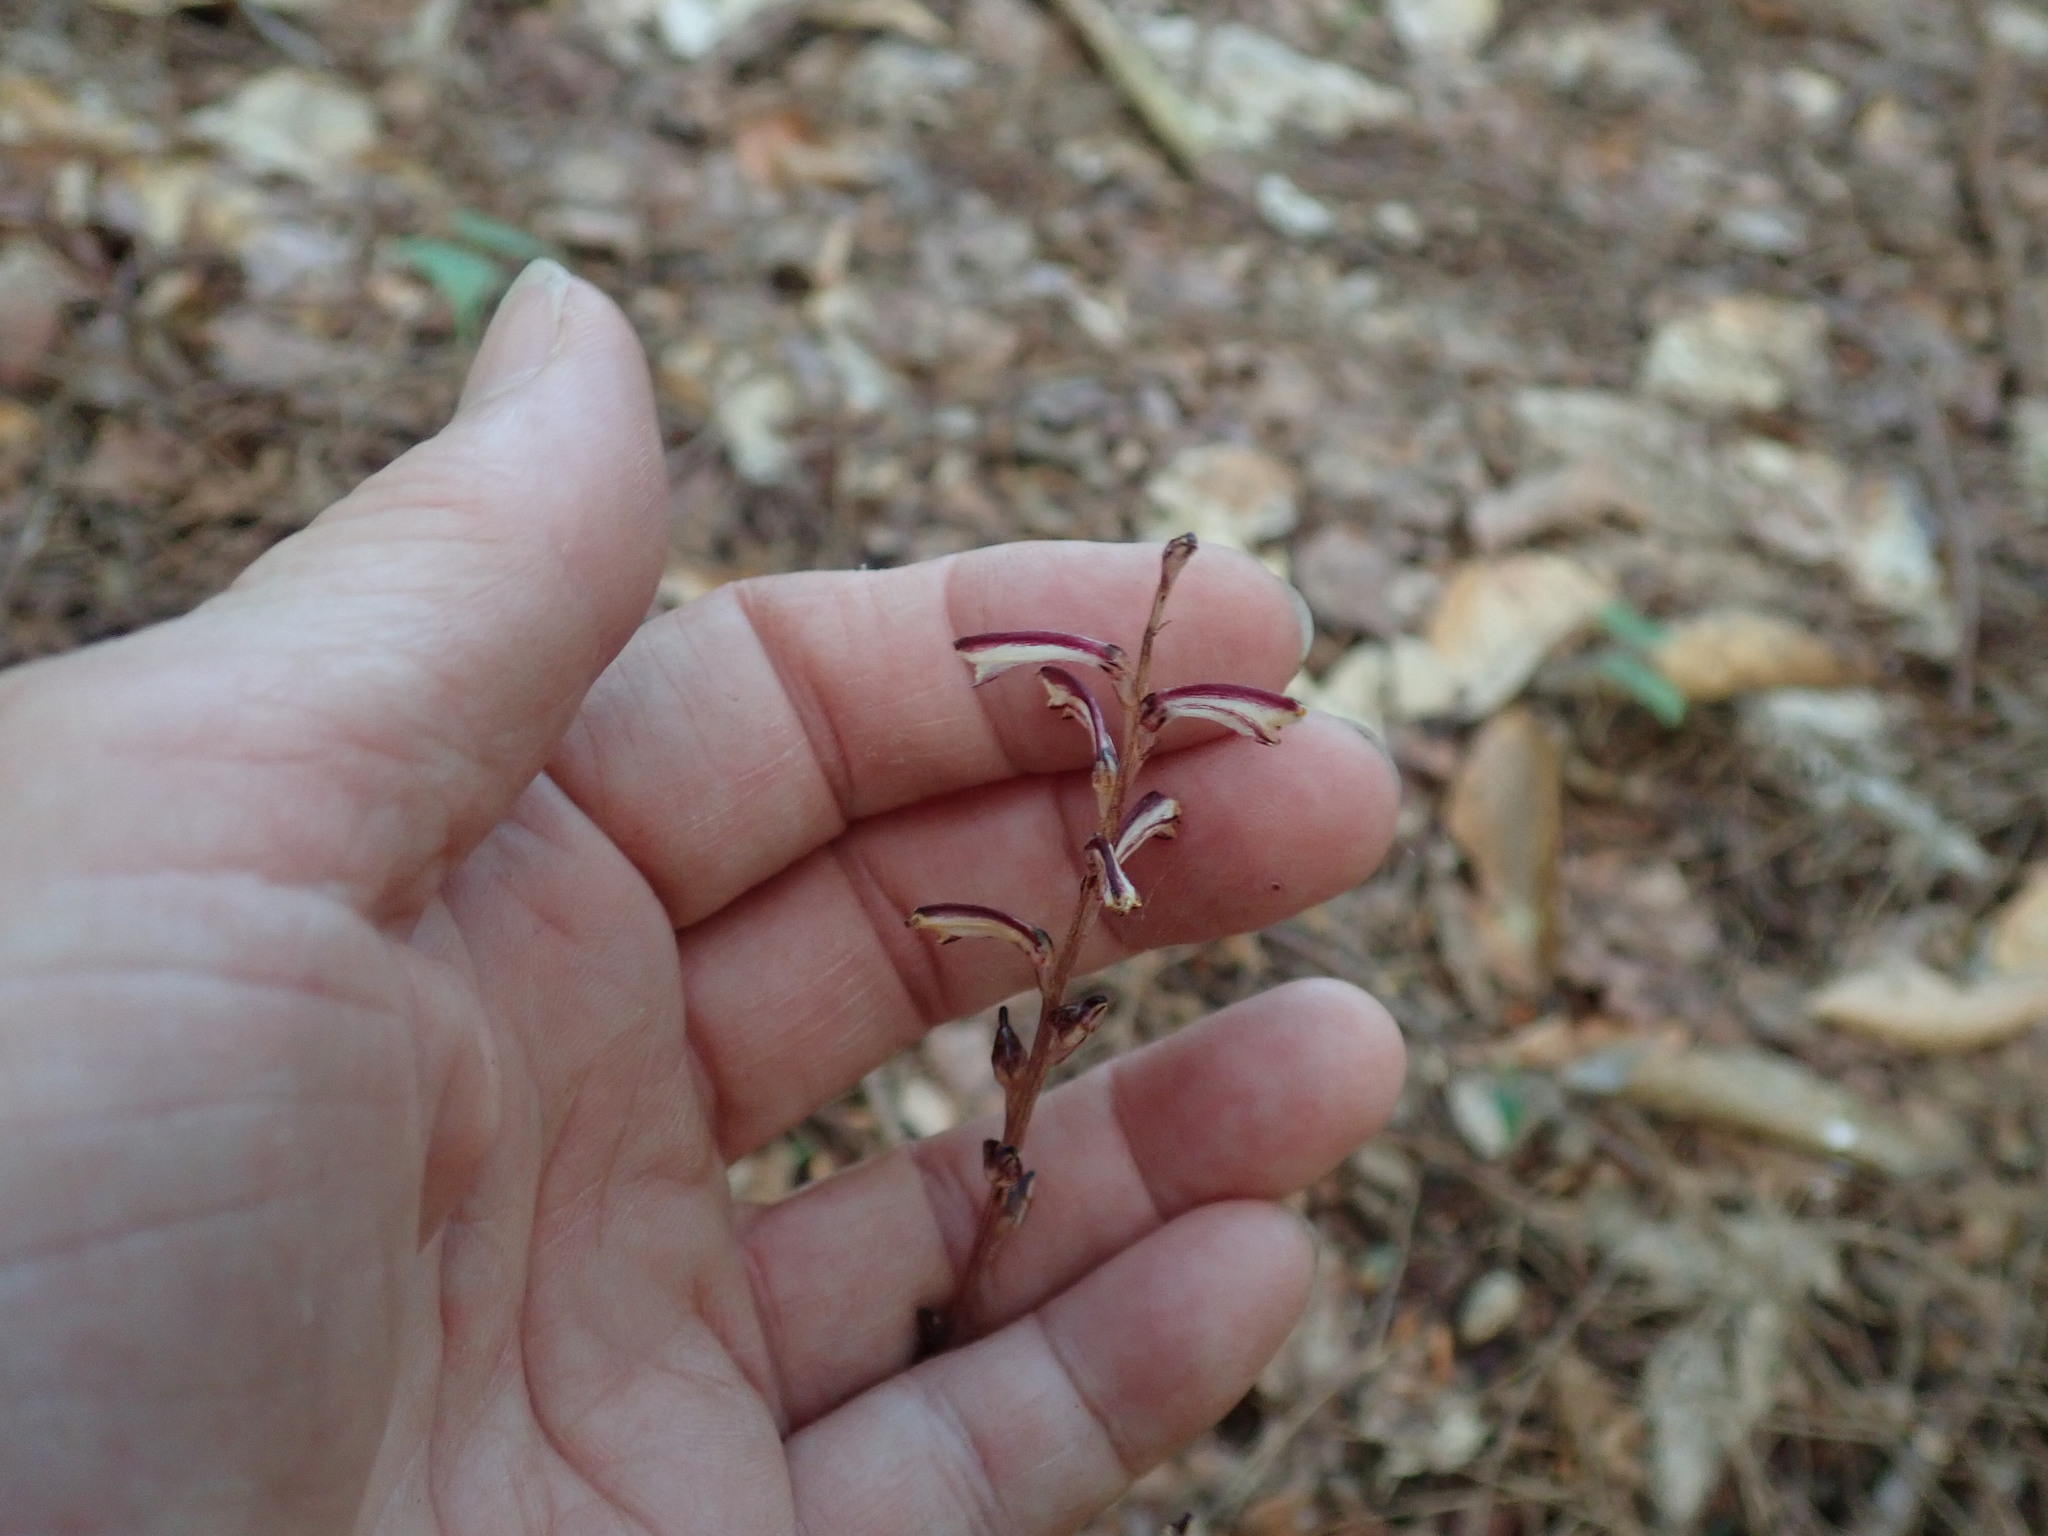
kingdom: Plantae
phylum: Tracheophyta
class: Magnoliopsida
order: Lamiales
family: Orobanchaceae
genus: Epifagus
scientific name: Epifagus virginiana
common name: Beechdrops
